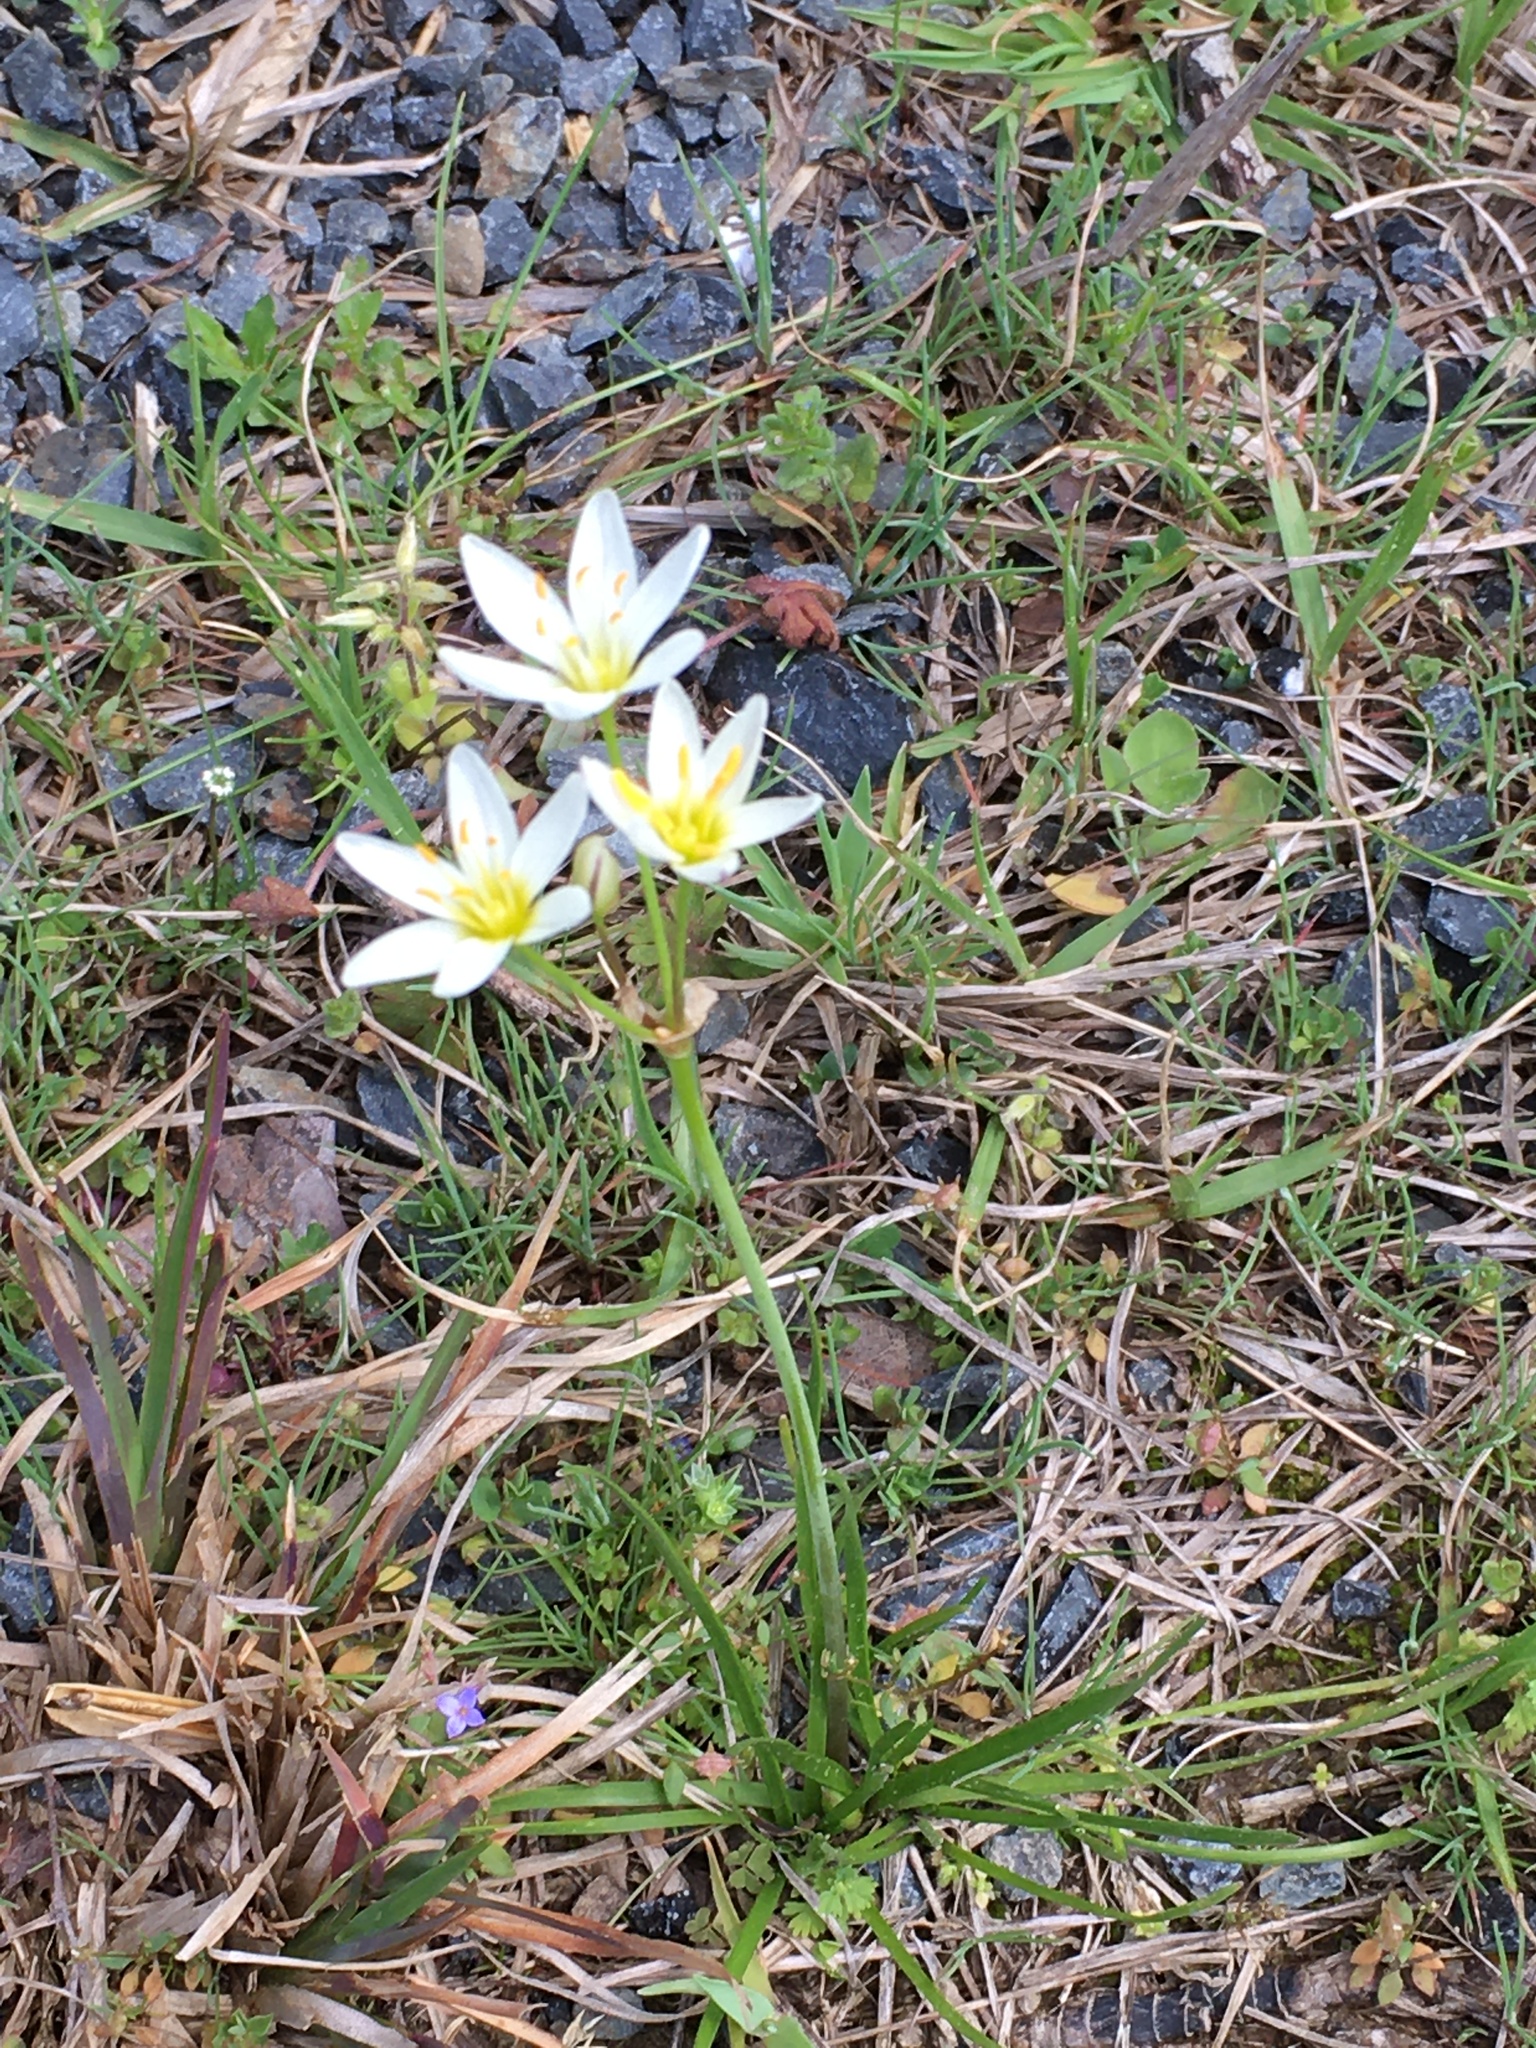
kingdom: Plantae
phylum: Tracheophyta
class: Liliopsida
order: Asparagales
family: Amaryllidaceae
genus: Nothoscordum
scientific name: Nothoscordum bivalve
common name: Crow-poison
